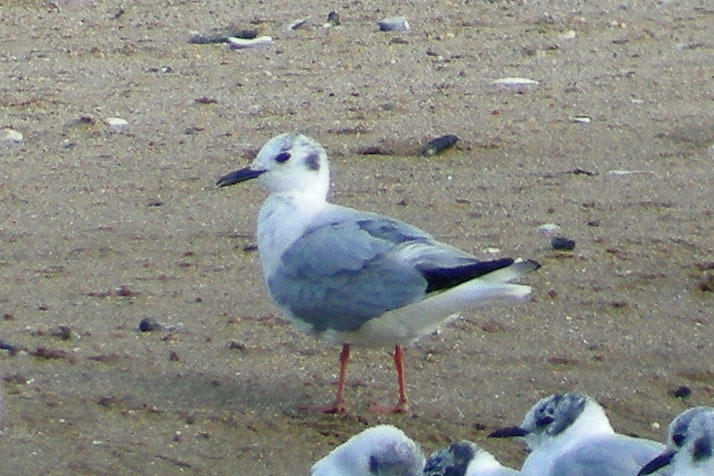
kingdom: Animalia
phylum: Chordata
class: Aves
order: Charadriiformes
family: Laridae
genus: Chroicocephalus
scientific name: Chroicocephalus philadelphia
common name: Bonaparte's gull
